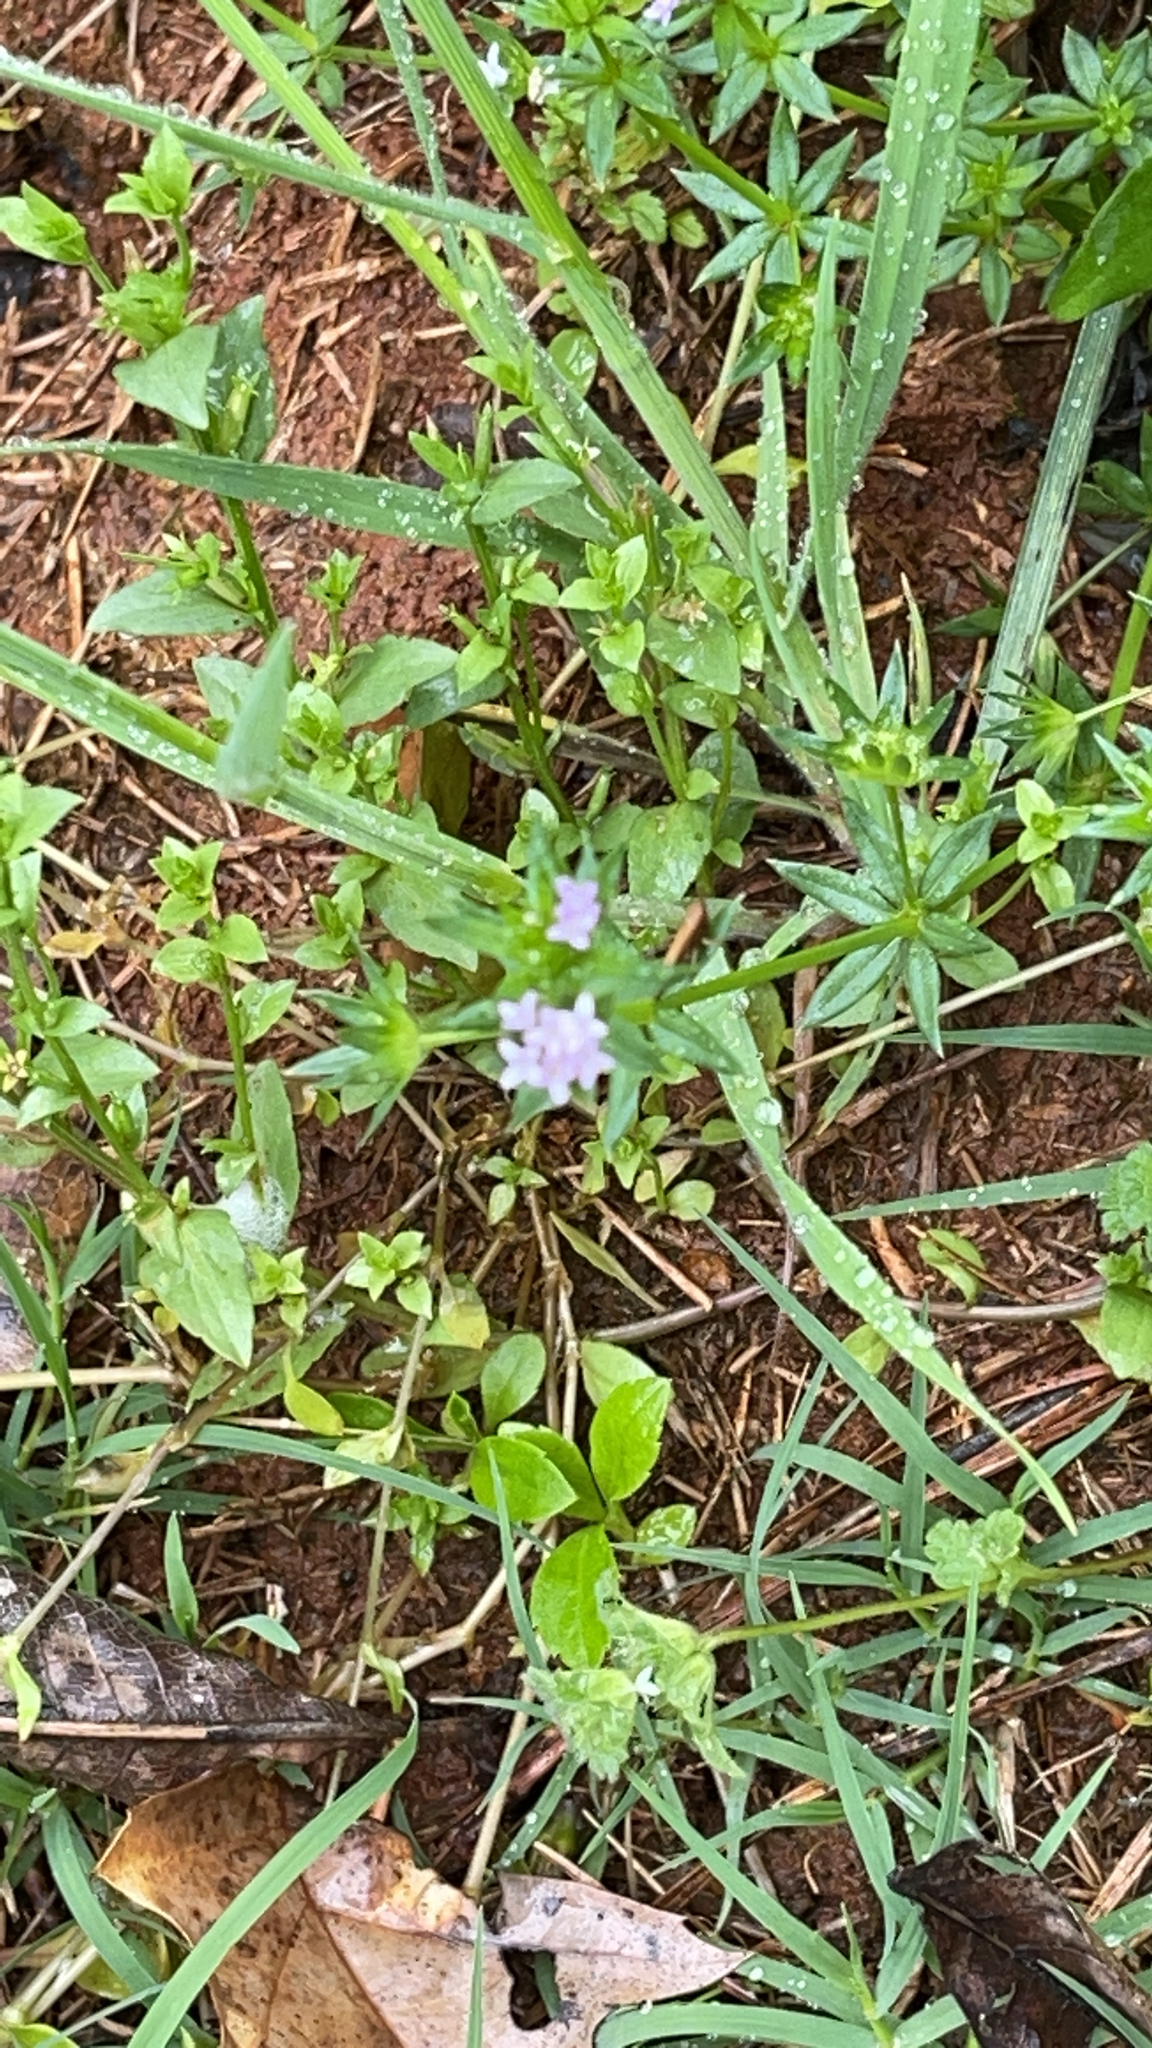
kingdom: Plantae
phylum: Tracheophyta
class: Magnoliopsida
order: Gentianales
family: Rubiaceae
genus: Sherardia
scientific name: Sherardia arvensis
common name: Field madder
